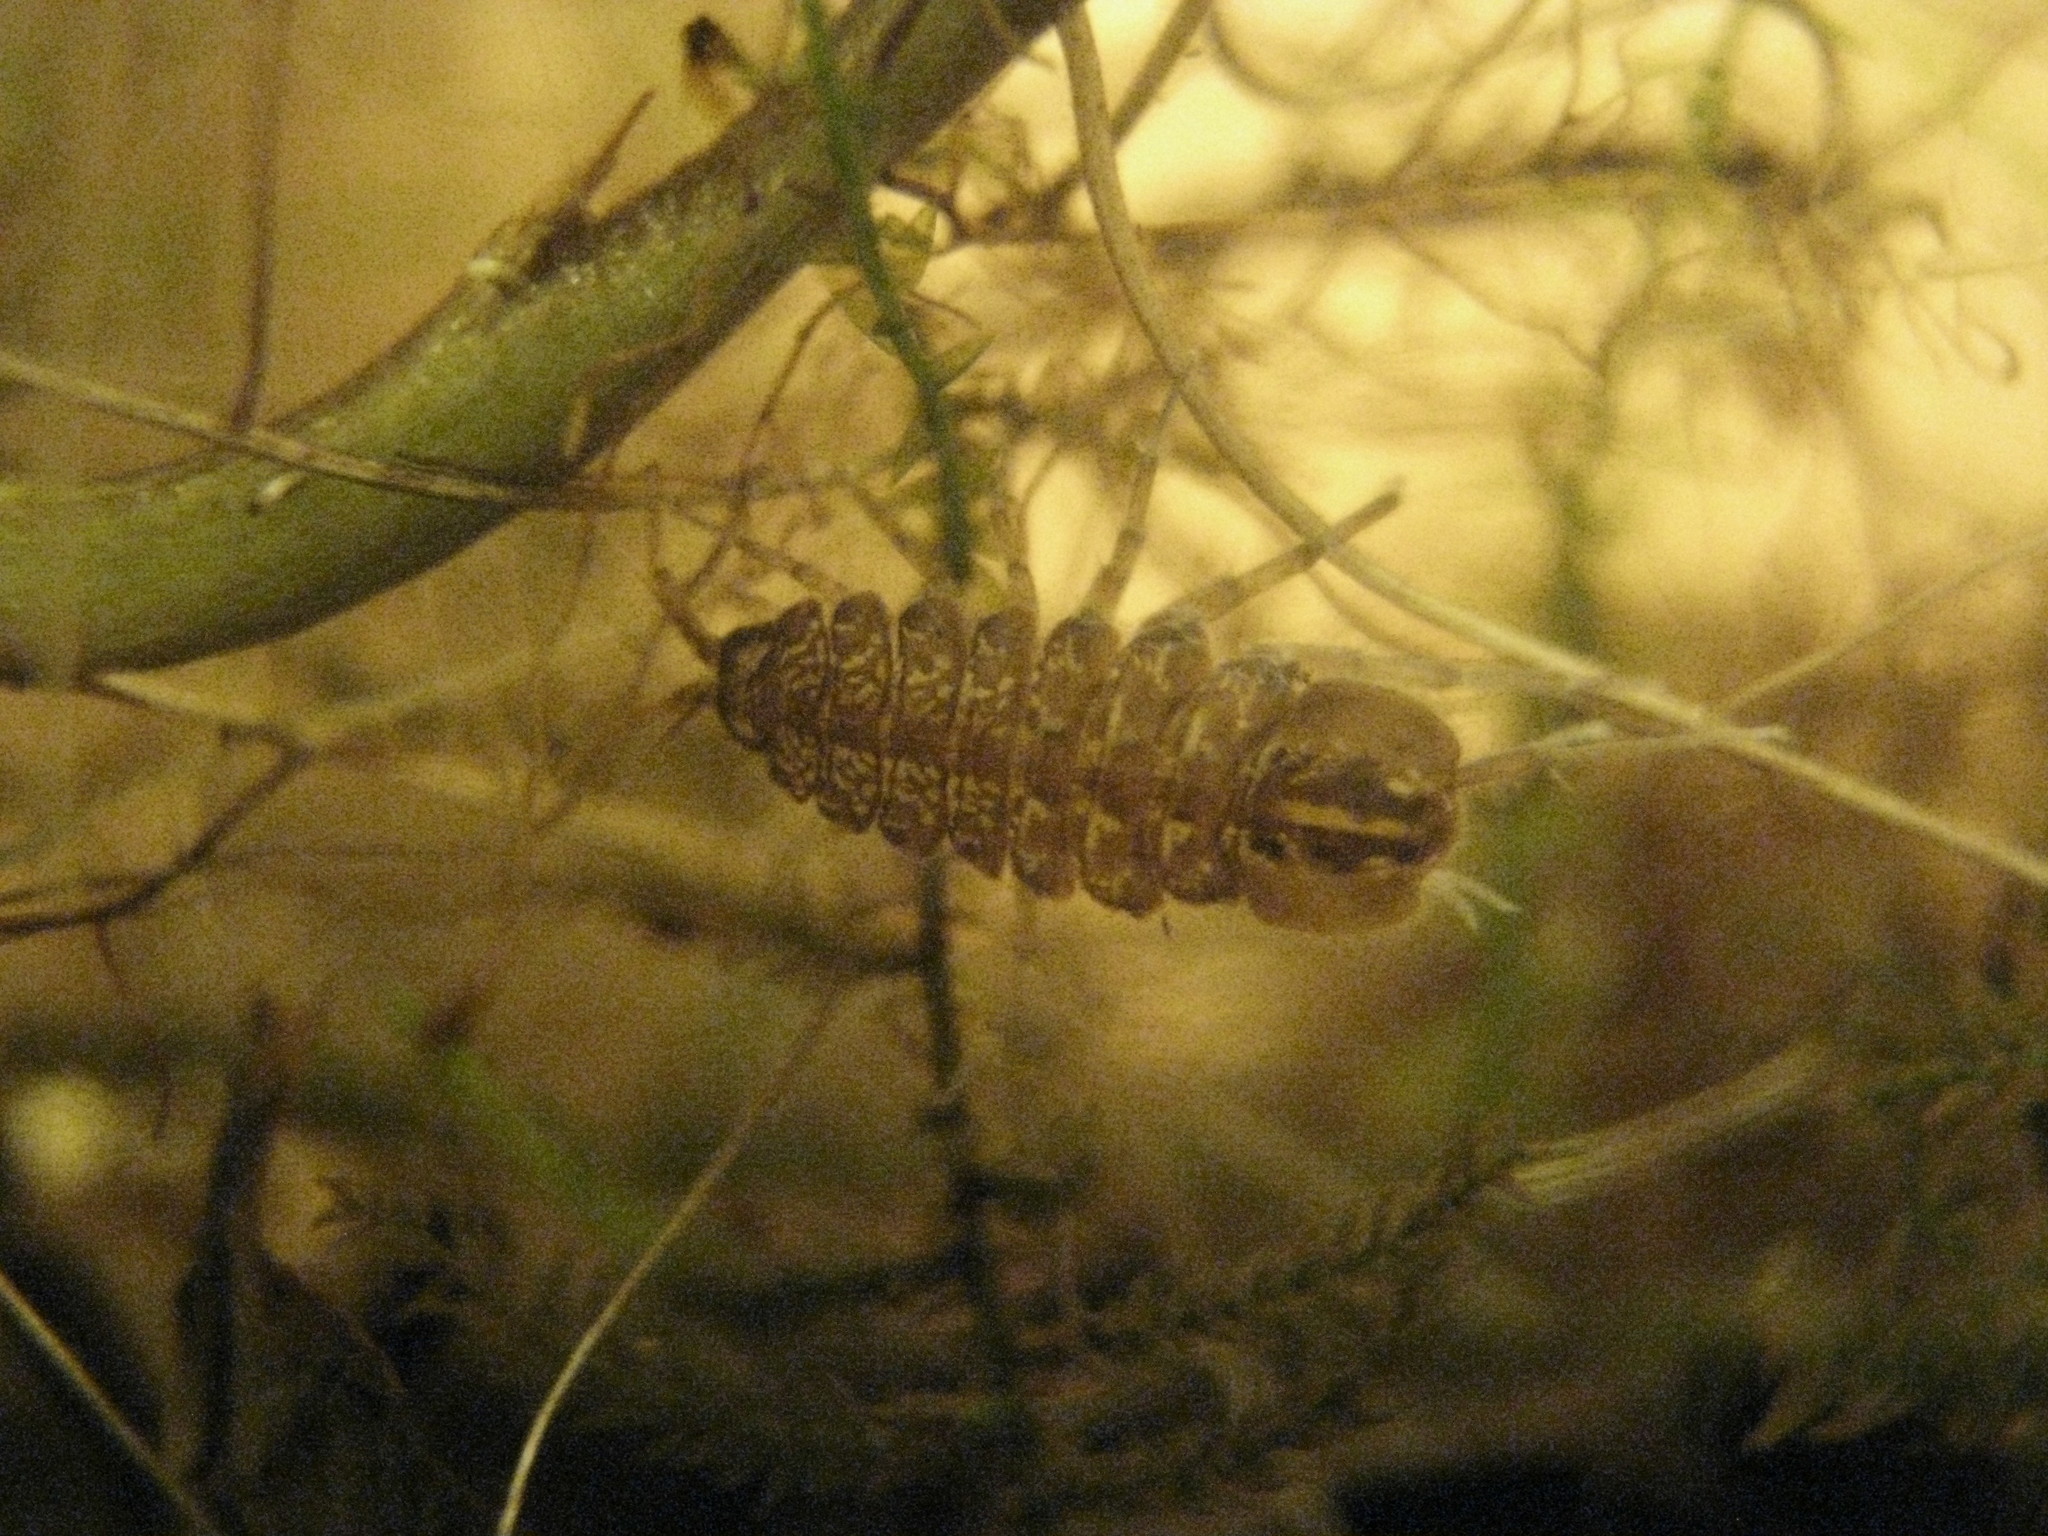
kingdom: Animalia
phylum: Arthropoda
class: Malacostraca
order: Isopoda
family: Asellidae
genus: Asellus
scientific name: Asellus aquaticus
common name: Water hog lice/slaters
